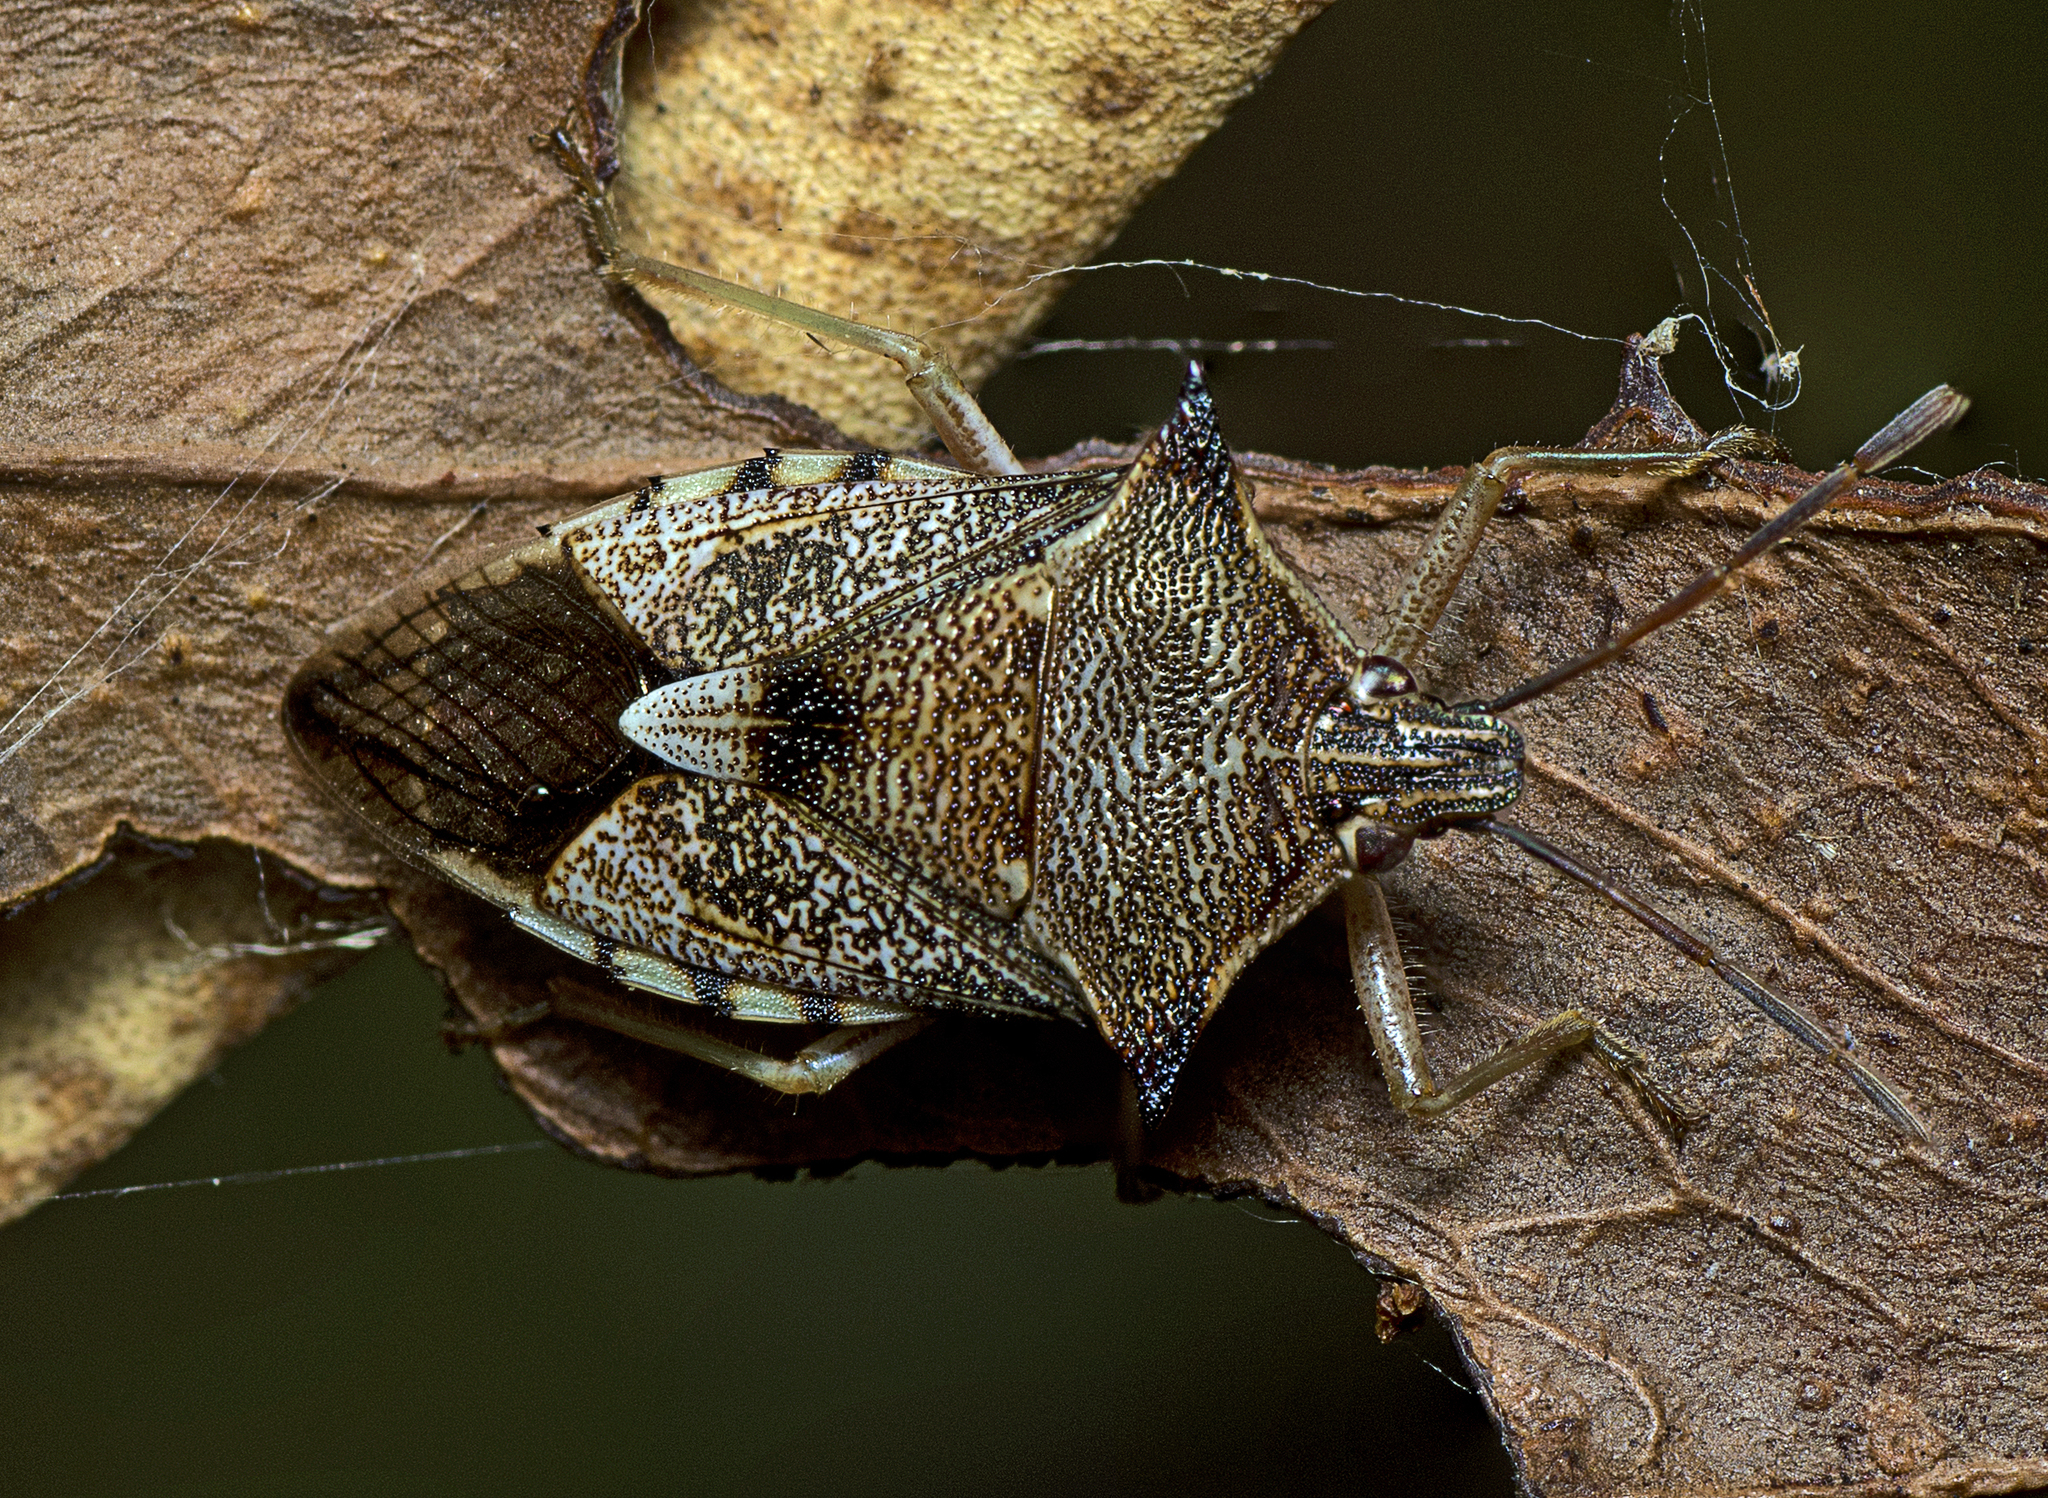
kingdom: Animalia
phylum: Arthropoda
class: Insecta
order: Hemiptera
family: Pentatomidae
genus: Oechalia
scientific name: Oechalia schellenbergii
